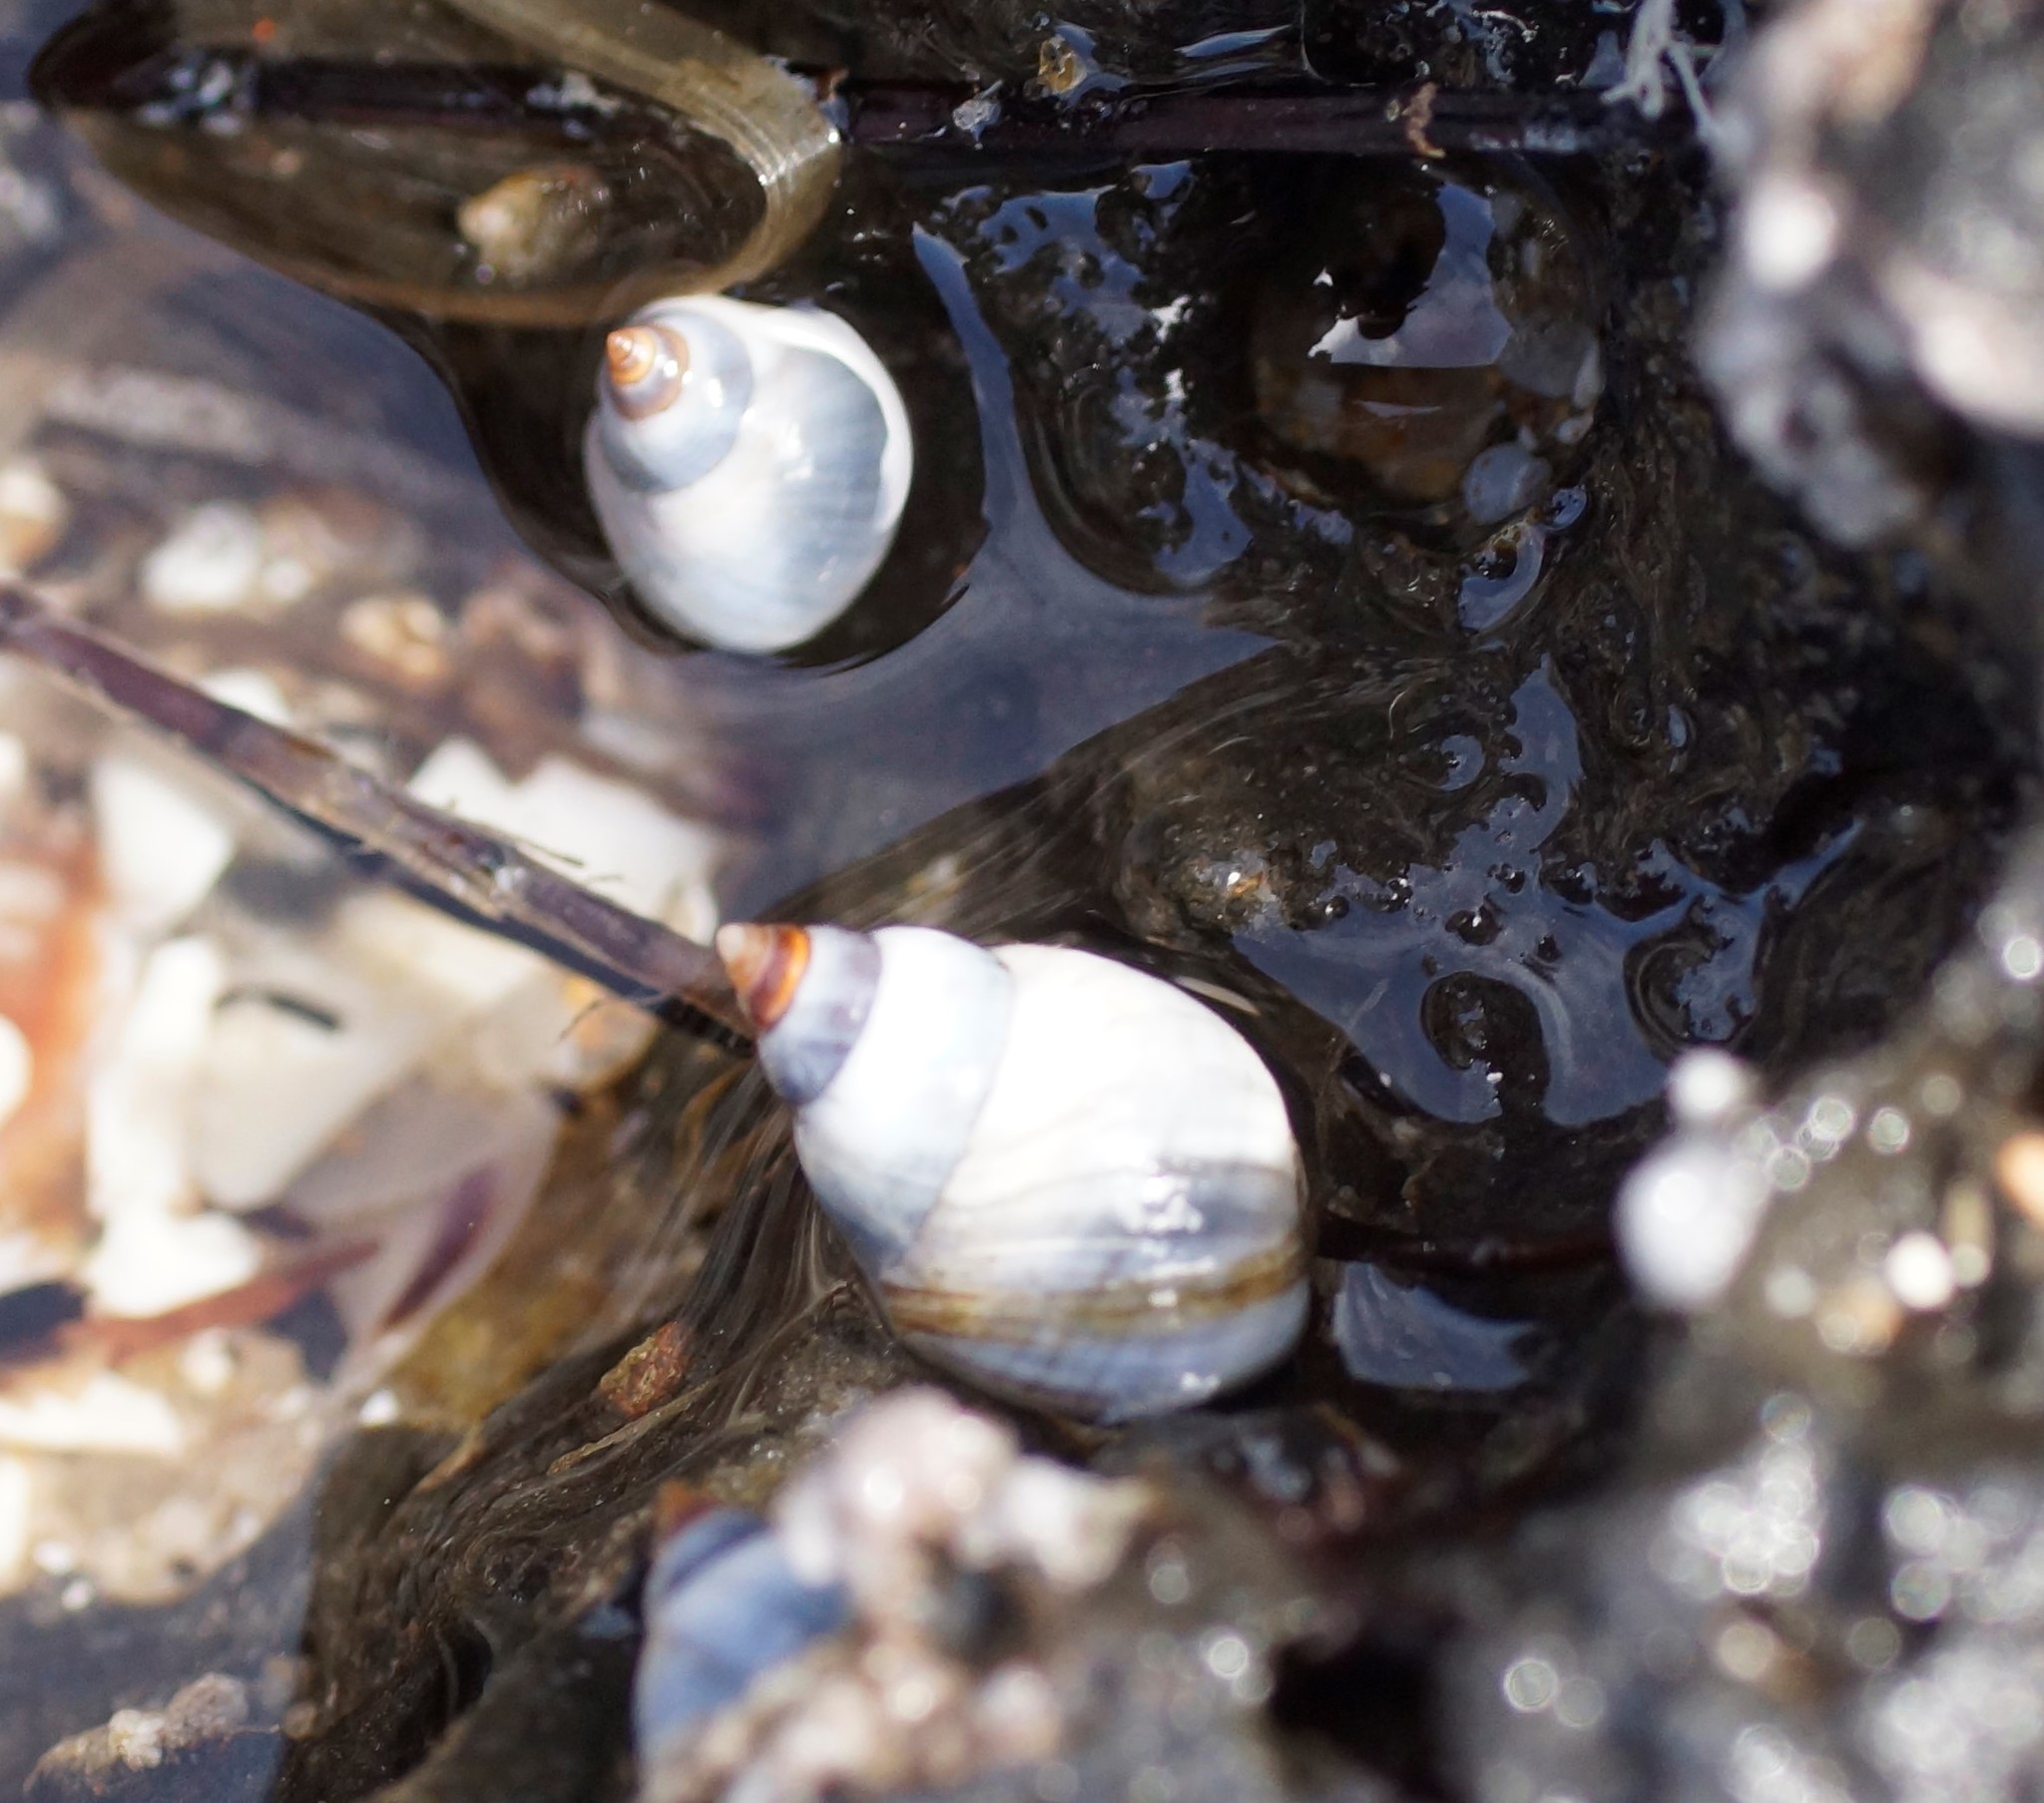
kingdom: Animalia
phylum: Mollusca
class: Gastropoda
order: Littorinimorpha
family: Littorinidae
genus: Austrolittorina
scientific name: Austrolittorina unifasciata
